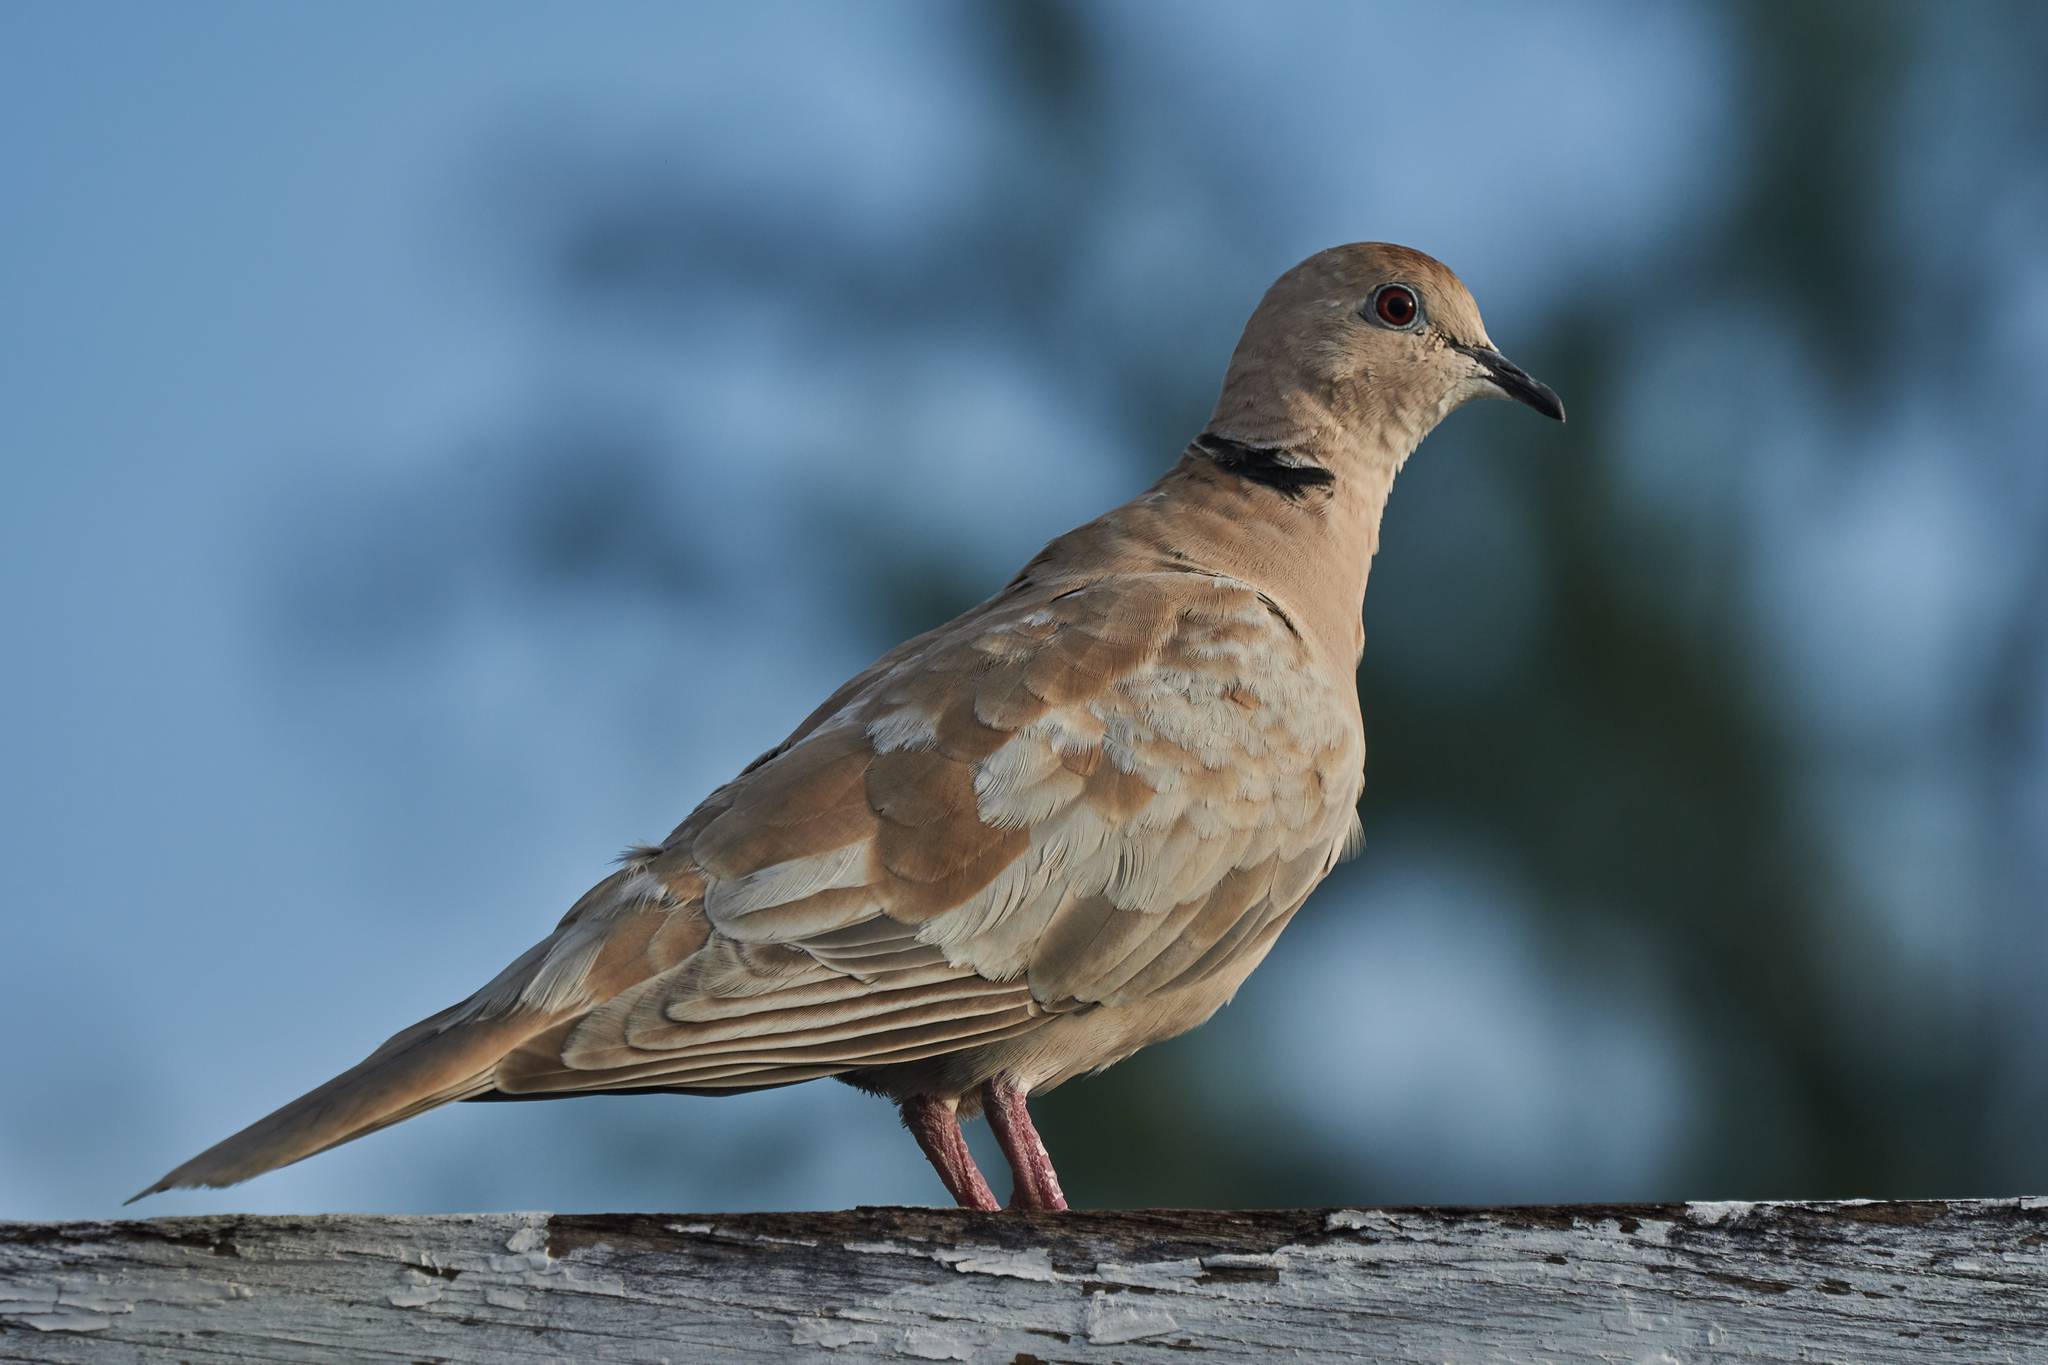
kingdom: Animalia
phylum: Chordata
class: Aves
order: Columbiformes
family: Columbidae
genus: Streptopelia
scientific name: Streptopelia decaocto
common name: Eurasian collared dove
